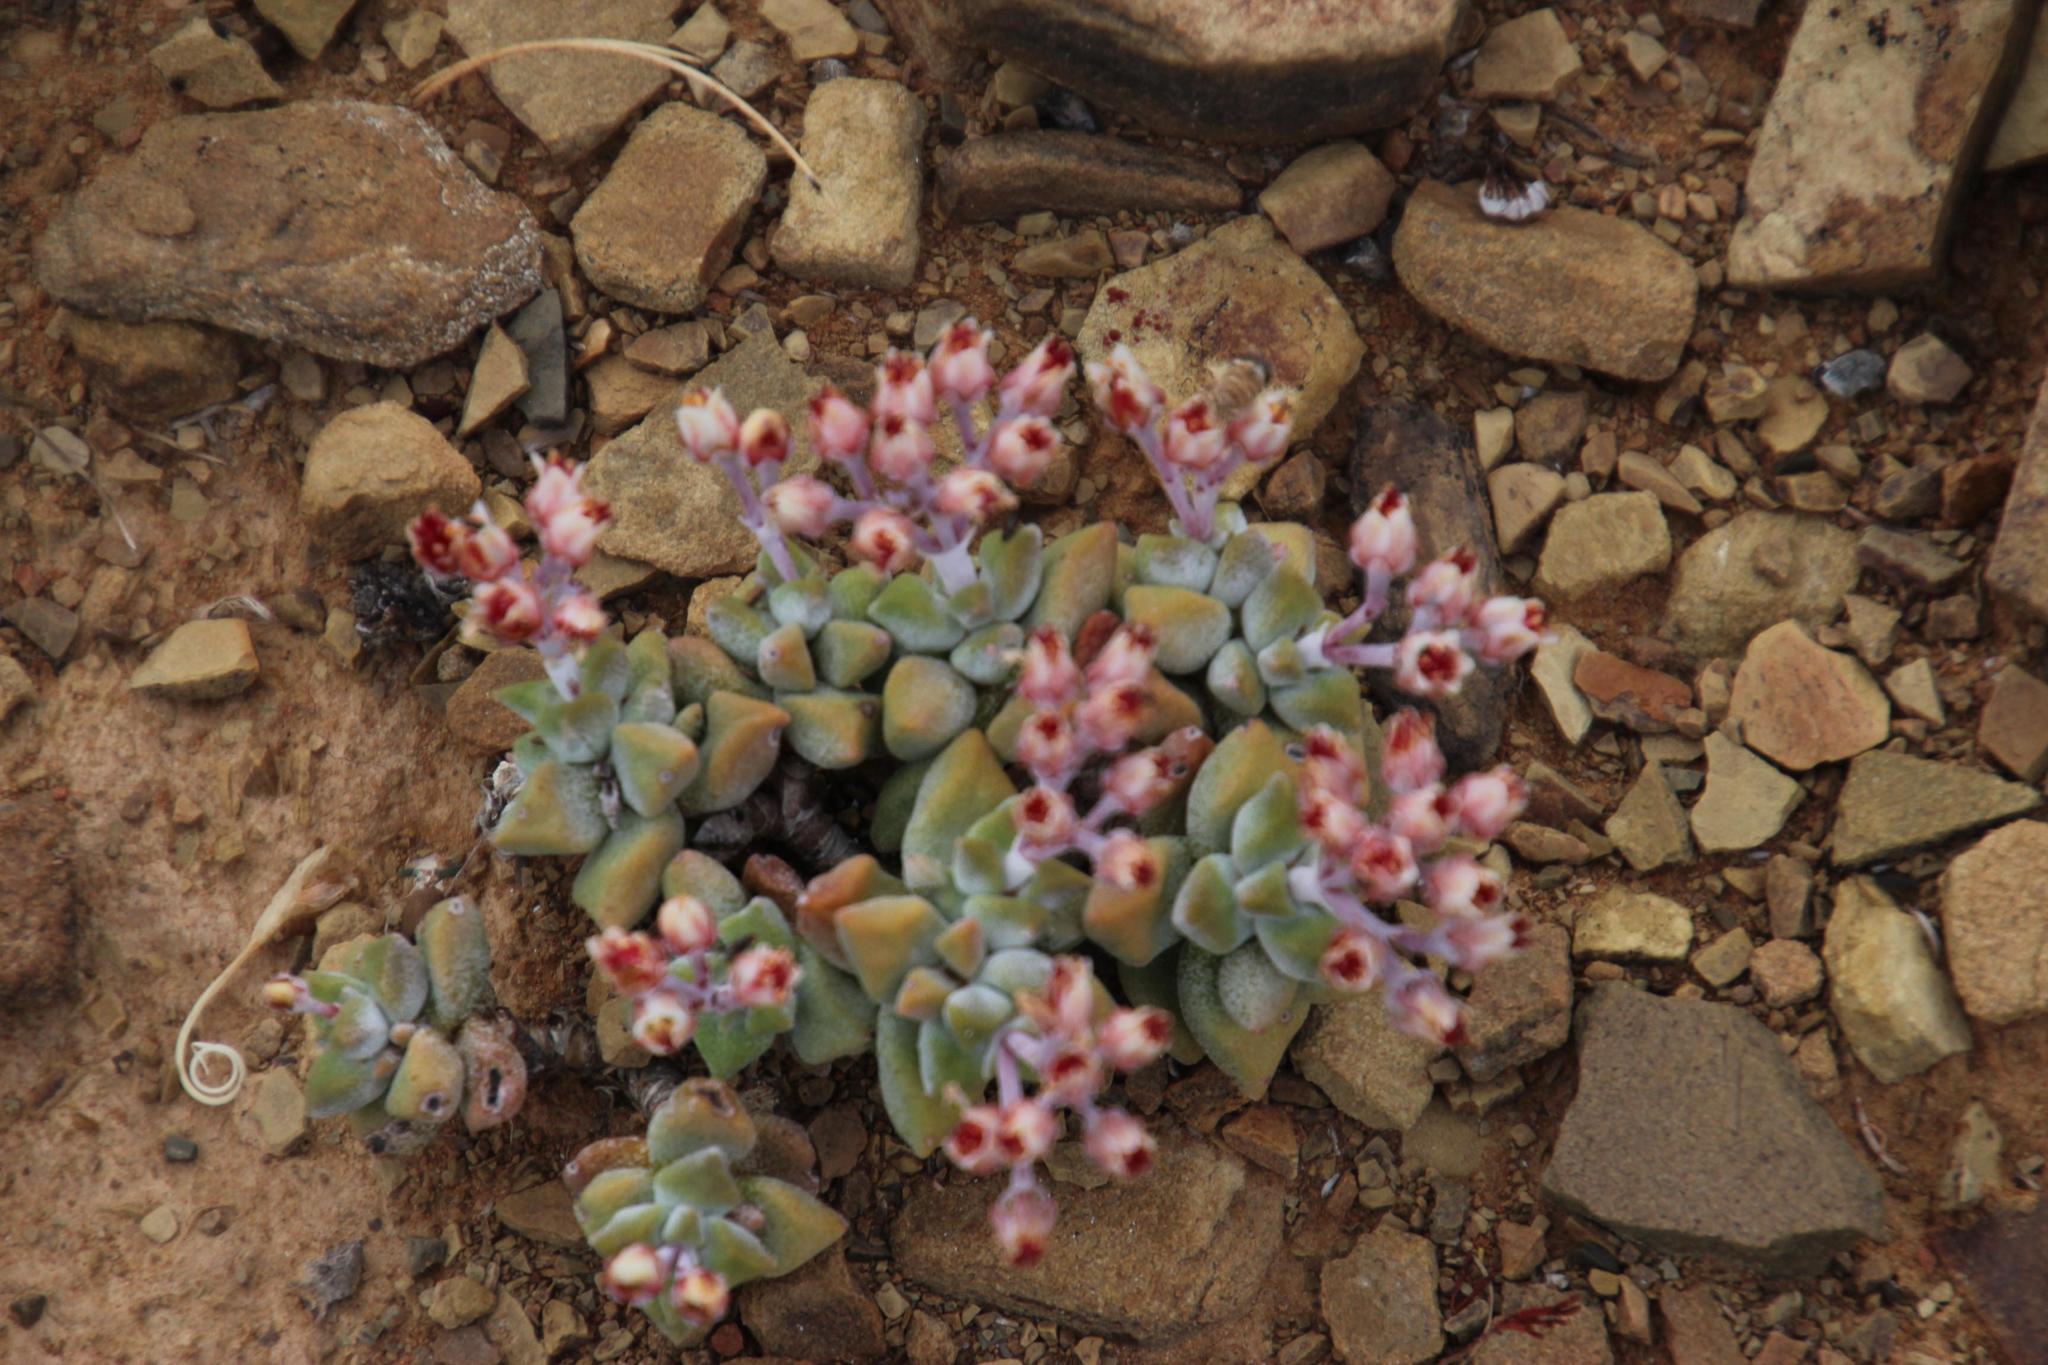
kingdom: Plantae
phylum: Tracheophyta
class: Magnoliopsida
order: Saxifragales
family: Crassulaceae
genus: Crassula
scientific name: Crassula deltoidea
